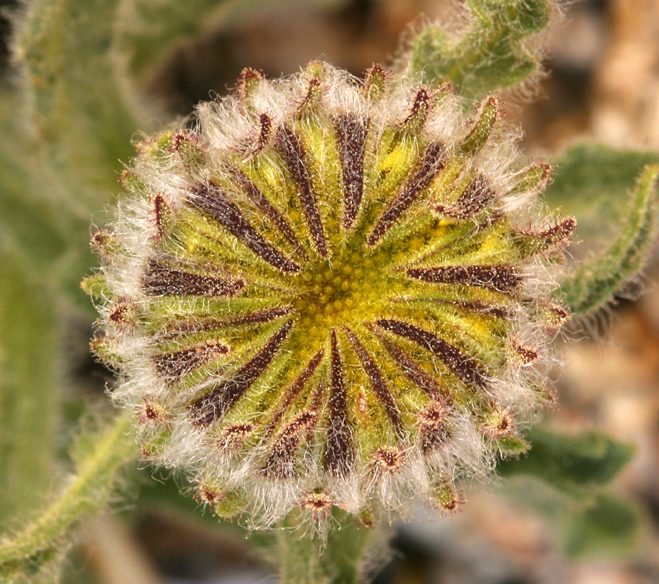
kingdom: Plantae
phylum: Tracheophyta
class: Magnoliopsida
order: Asterales
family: Asteraceae
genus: Hulsea
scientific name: Hulsea algida
